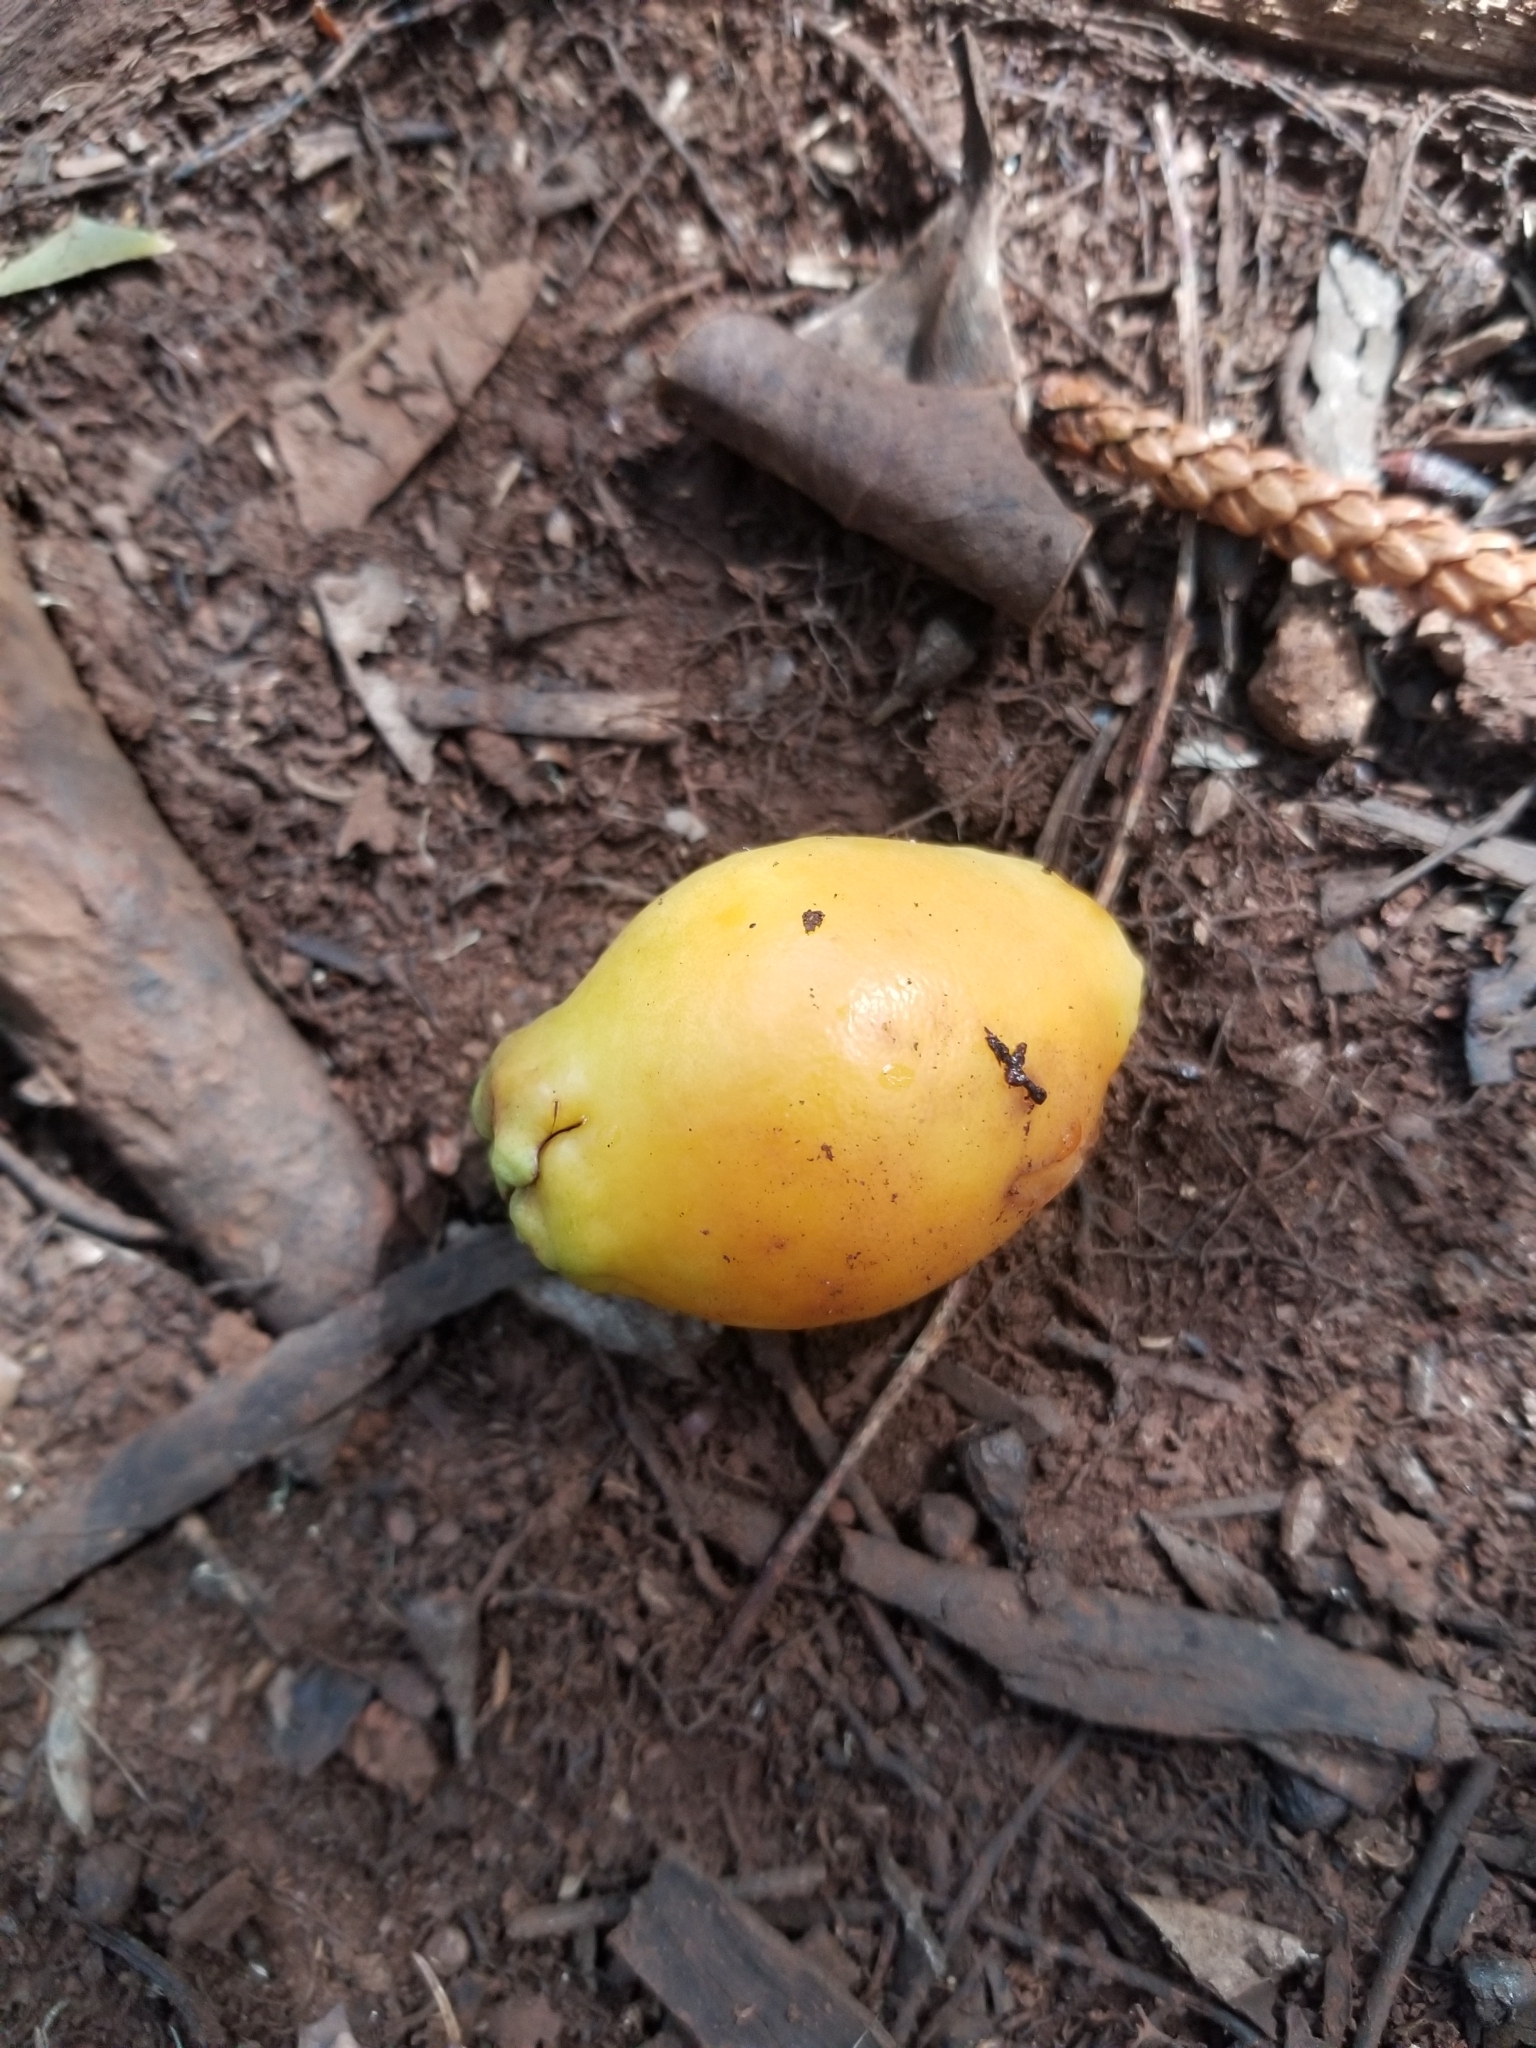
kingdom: Plantae
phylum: Tracheophyta
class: Magnoliopsida
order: Myrtales
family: Myrtaceae
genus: Psidium
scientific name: Psidium cattleianum
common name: Strawberry guava
